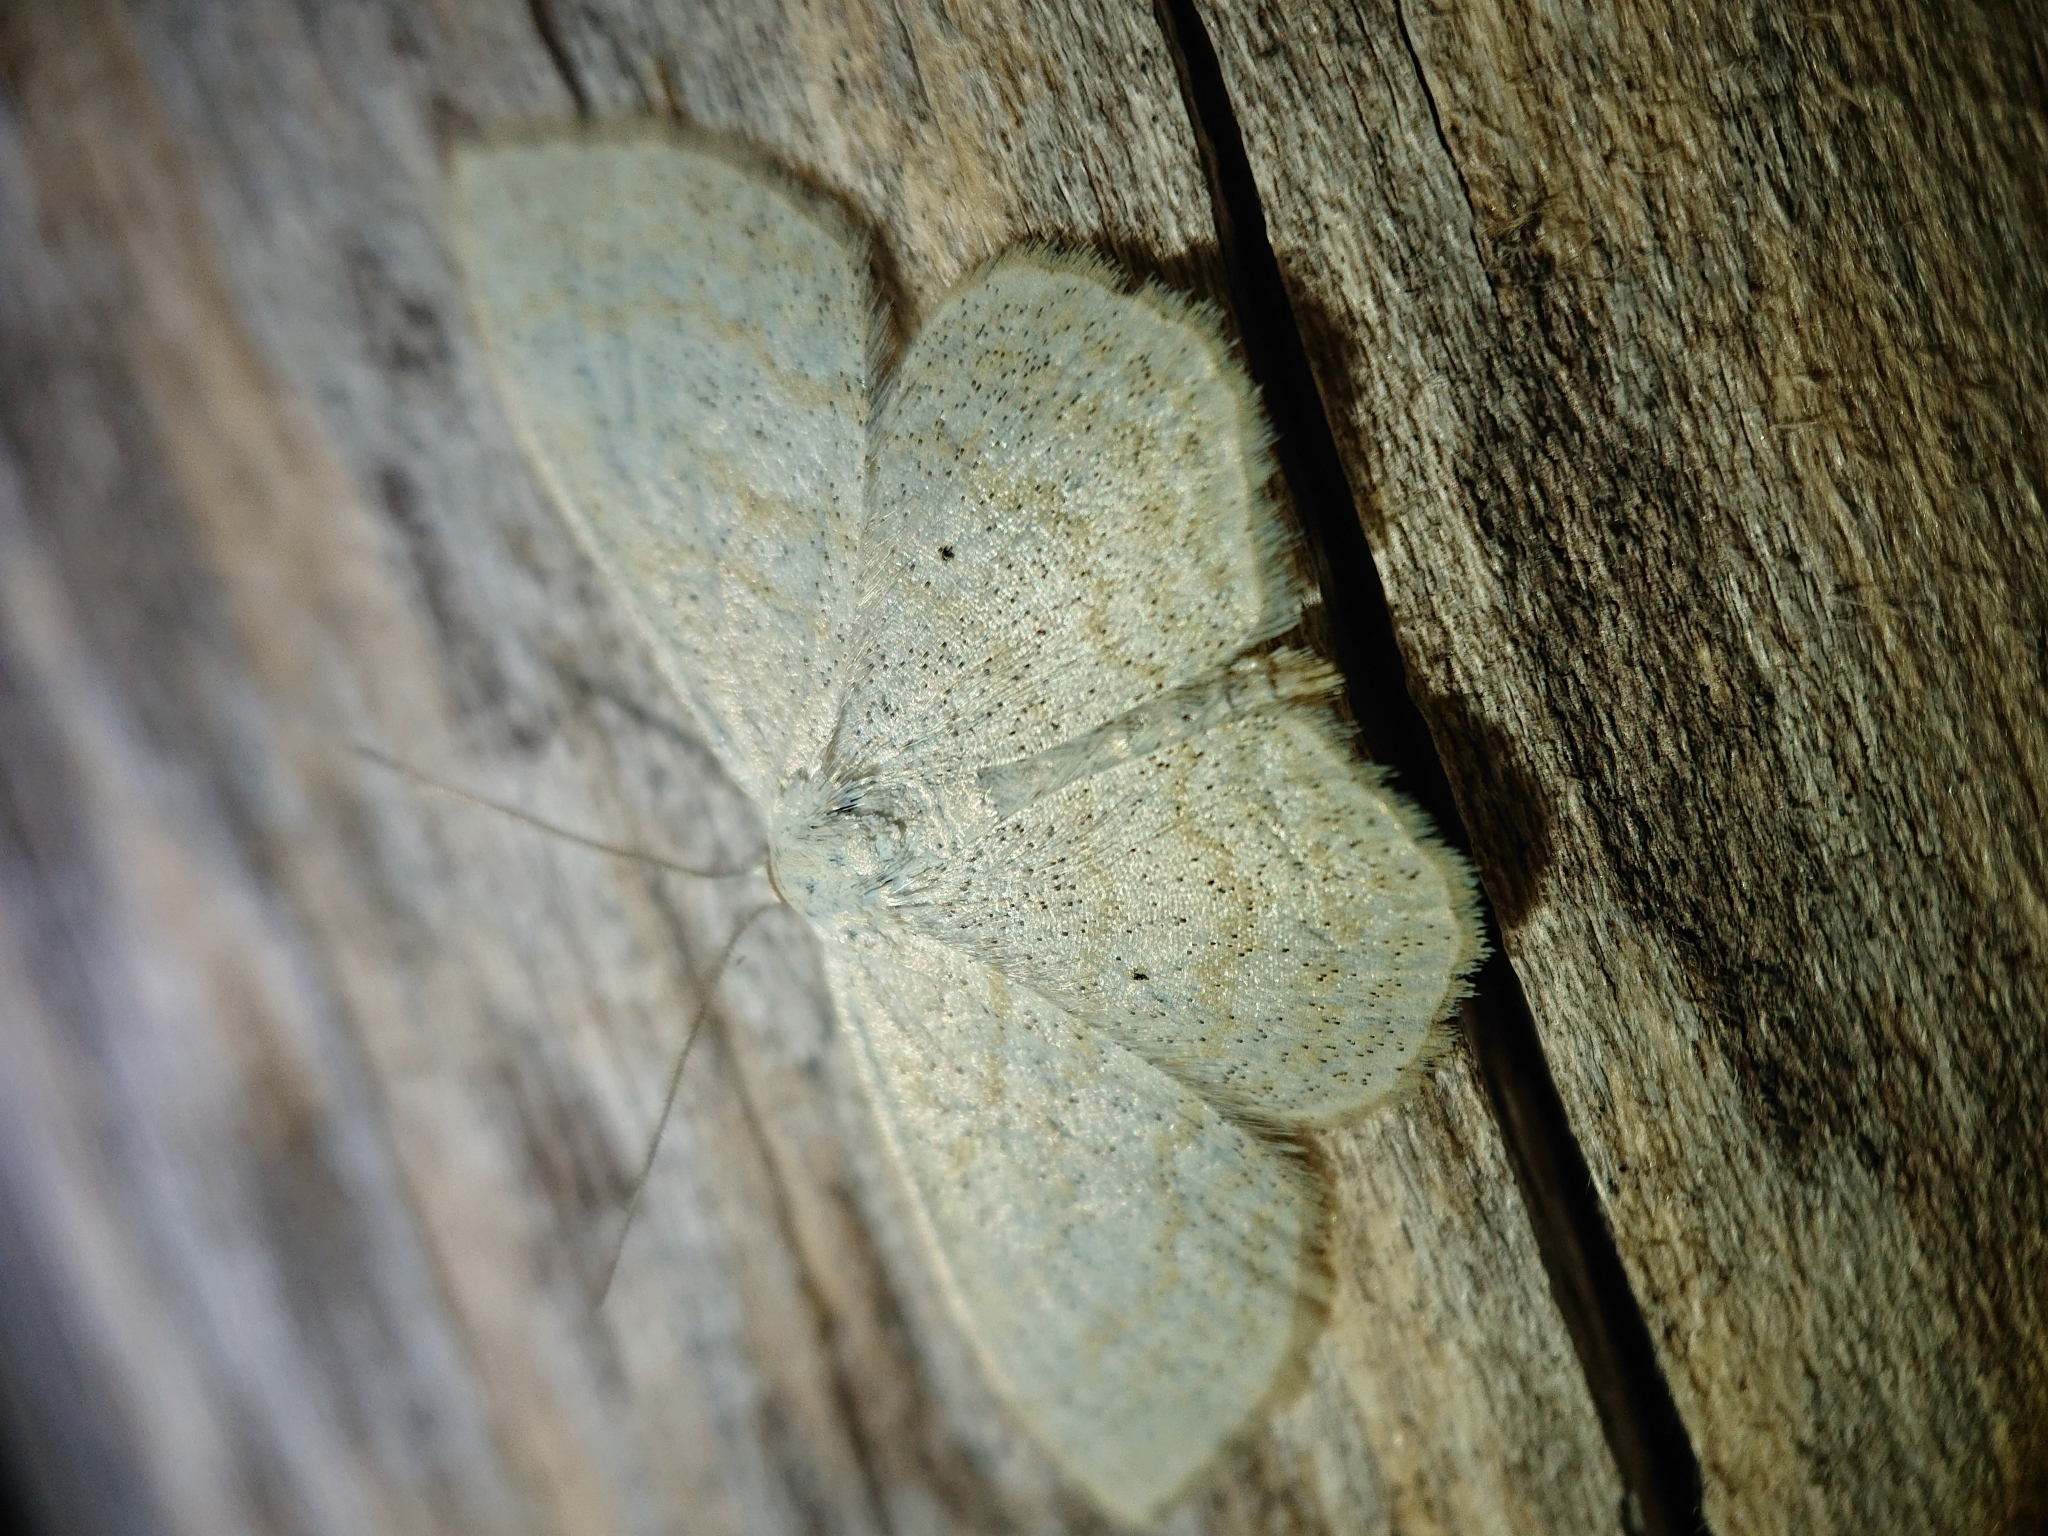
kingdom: Animalia
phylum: Arthropoda
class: Insecta
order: Lepidoptera
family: Geometridae
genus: Scopula
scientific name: Scopula immutata
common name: Lesser cream wave
